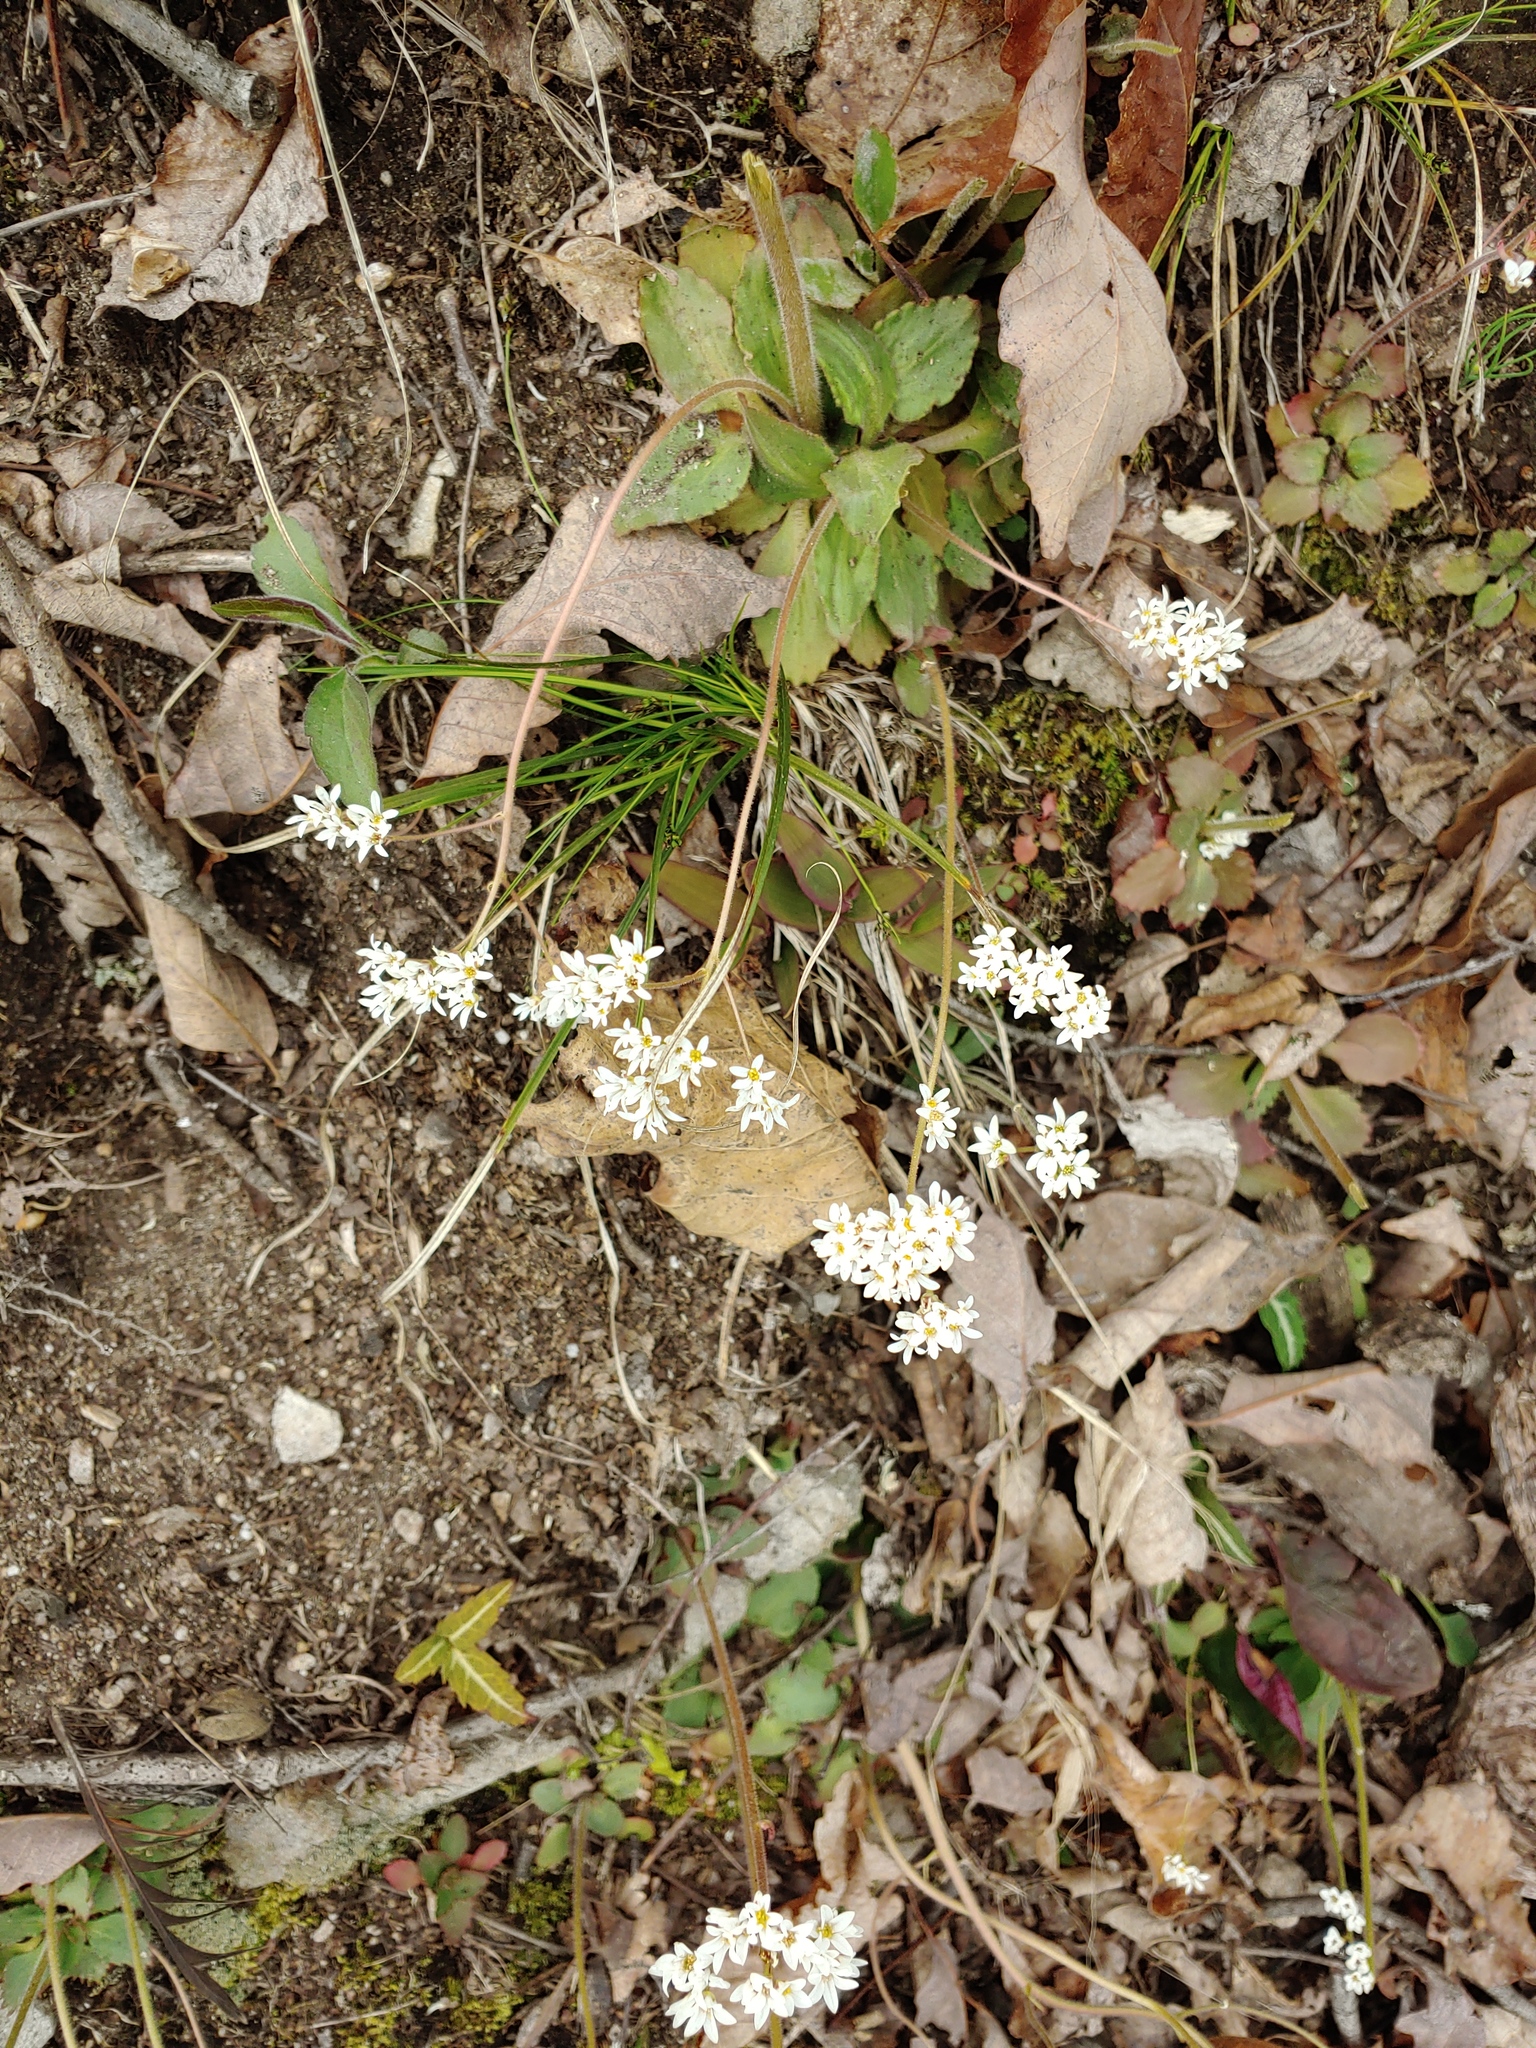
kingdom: Plantae
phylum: Tracheophyta
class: Magnoliopsida
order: Saxifragales
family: Saxifragaceae
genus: Micranthes
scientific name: Micranthes virginiensis
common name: Early saxifrage
